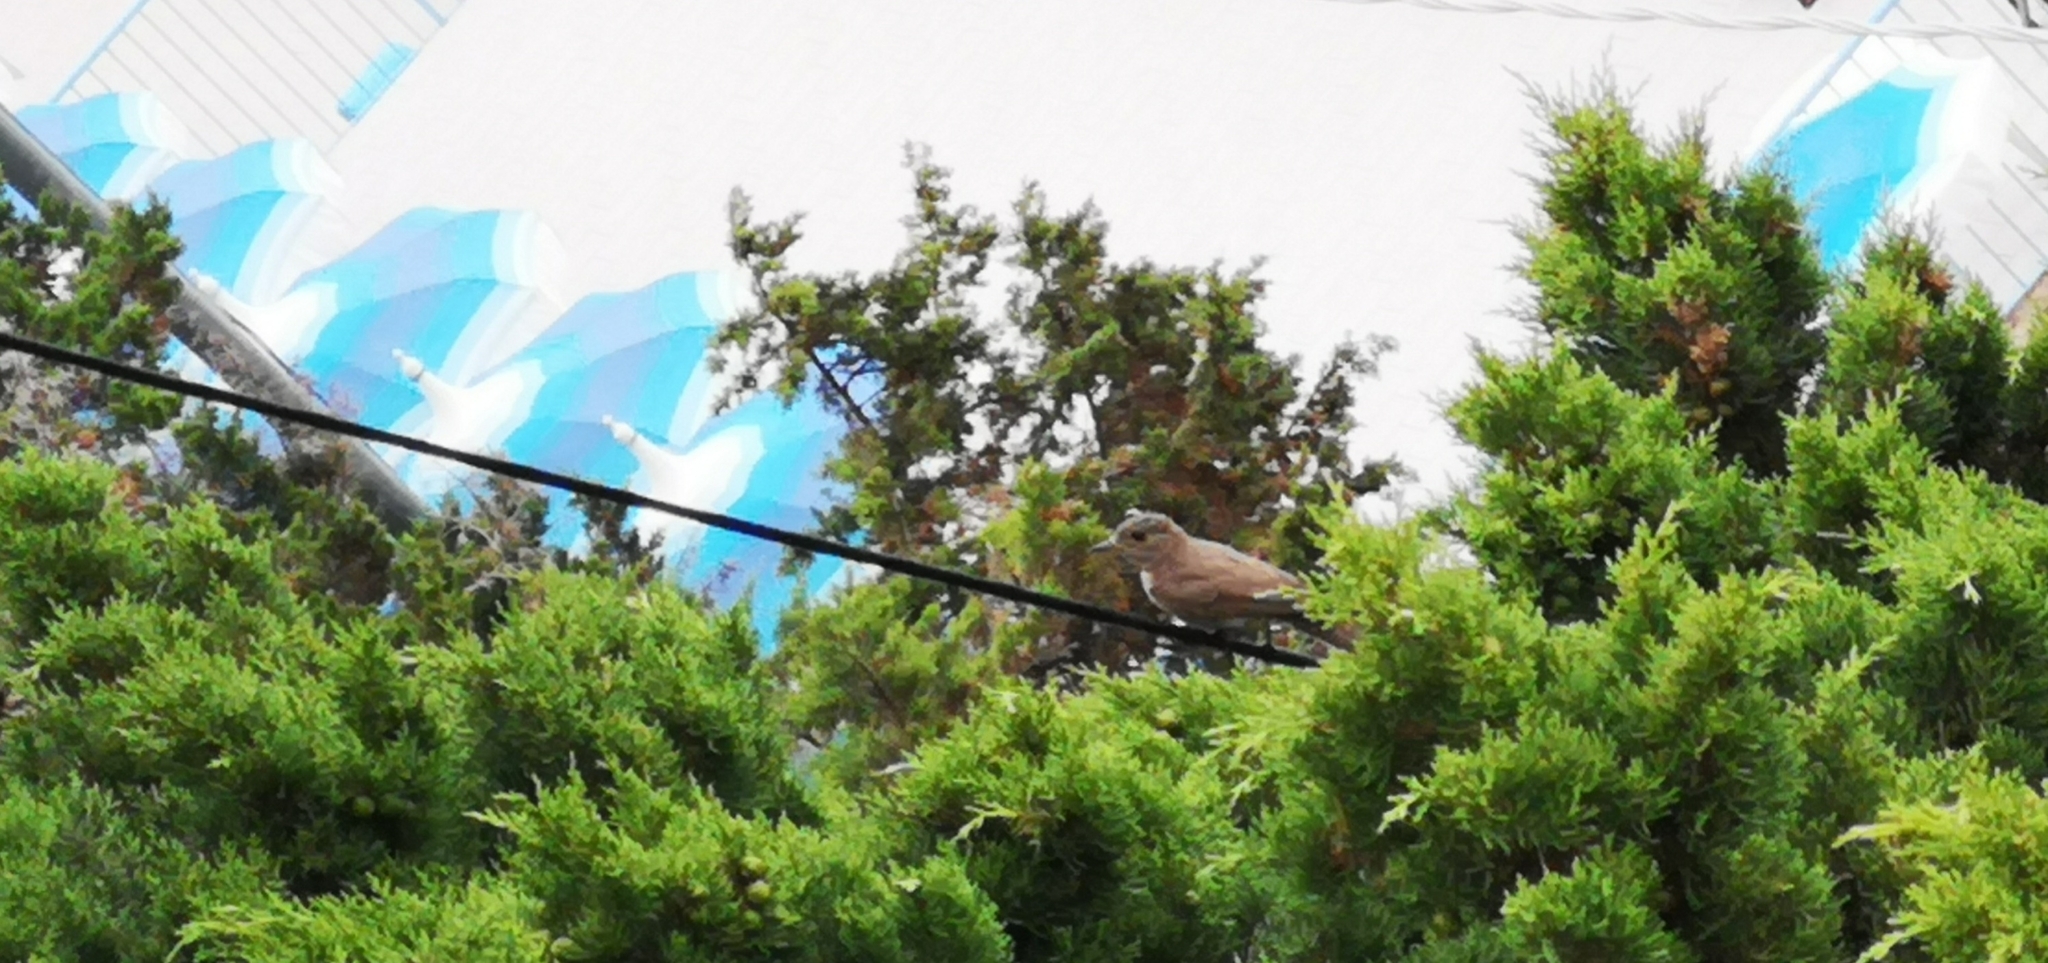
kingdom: Animalia
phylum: Chordata
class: Aves
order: Passeriformes
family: Muscicapidae
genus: Muscicapa
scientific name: Muscicapa striata
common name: Spotted flycatcher
